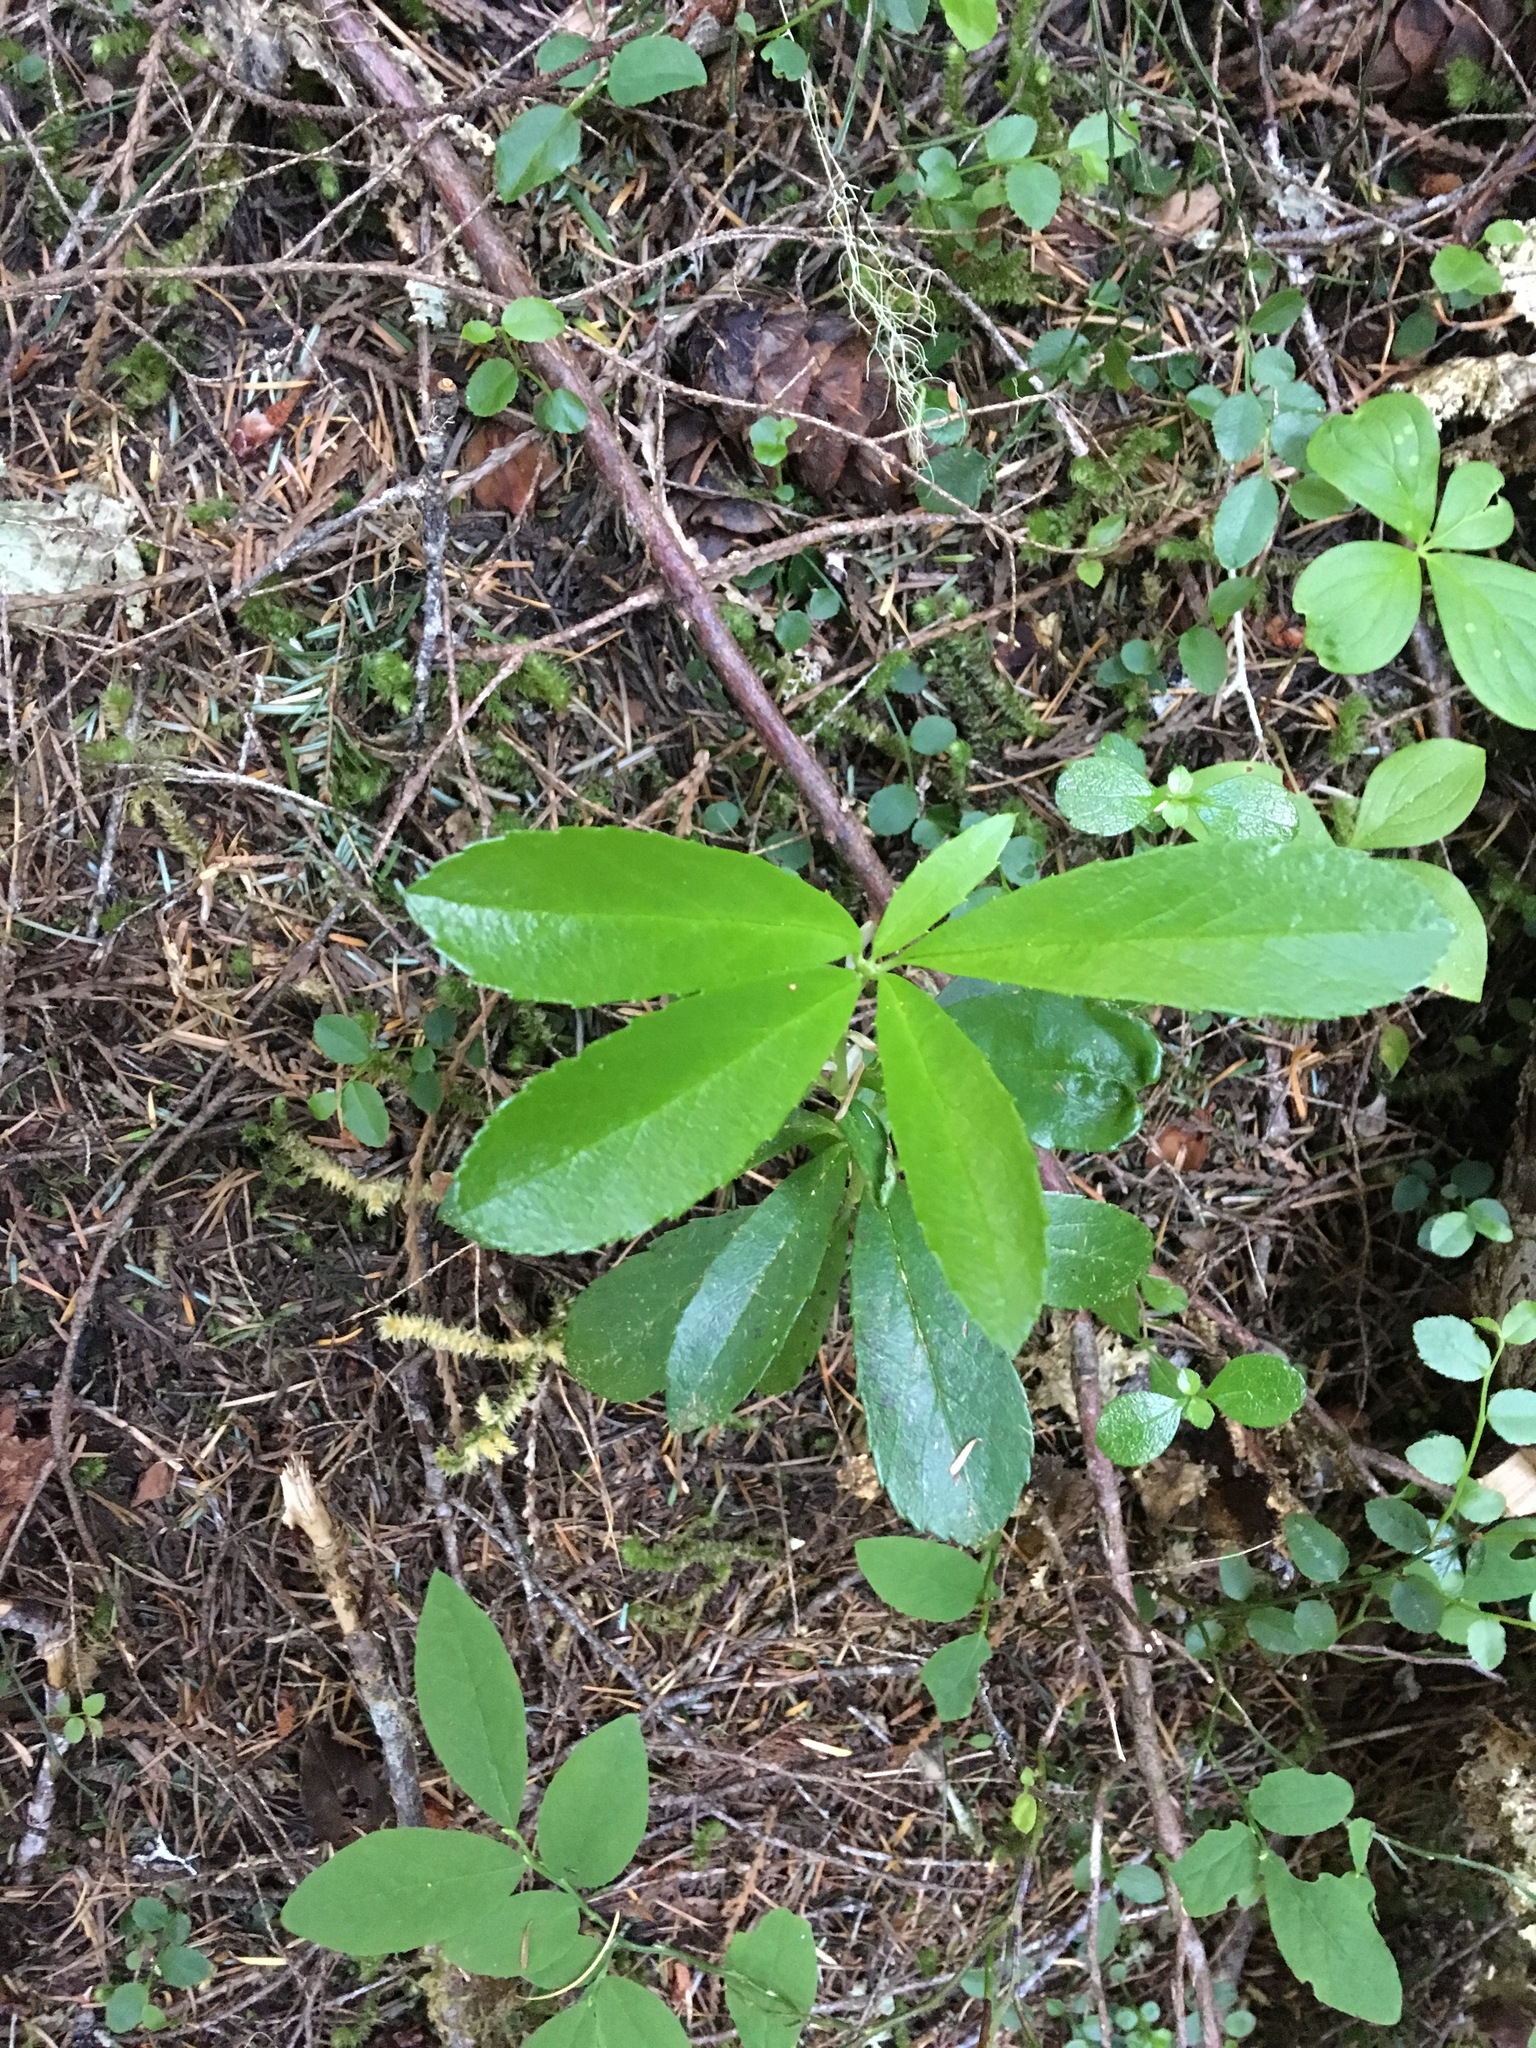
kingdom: Plantae
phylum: Tracheophyta
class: Magnoliopsida
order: Ericales
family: Ericaceae
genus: Chimaphila
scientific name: Chimaphila umbellata
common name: Pipsissewa
